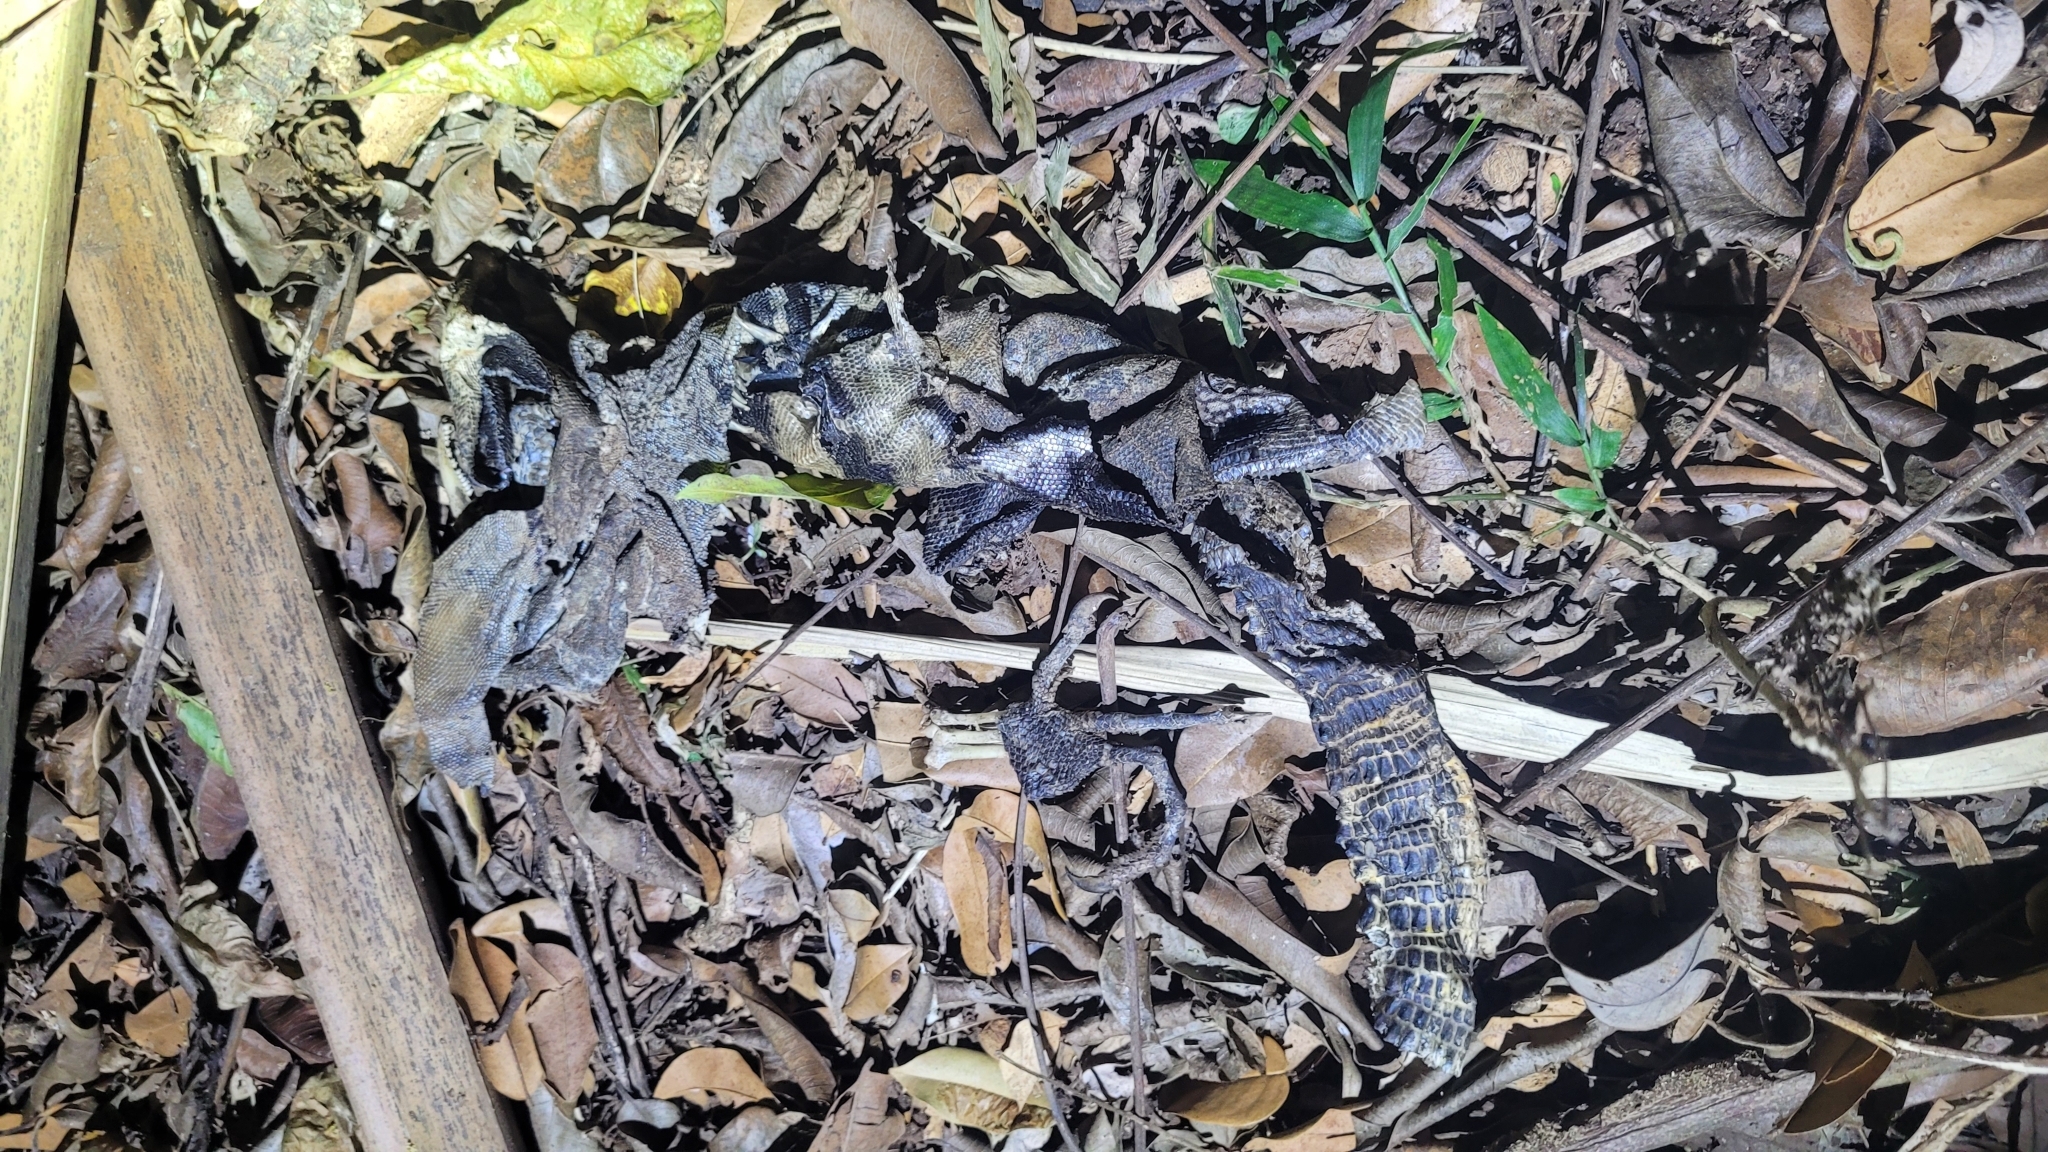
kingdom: Animalia
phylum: Chordata
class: Squamata
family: Iguanidae
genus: Ctenosaura
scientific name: Ctenosaura similis
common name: Black spiny-tailed iguana
